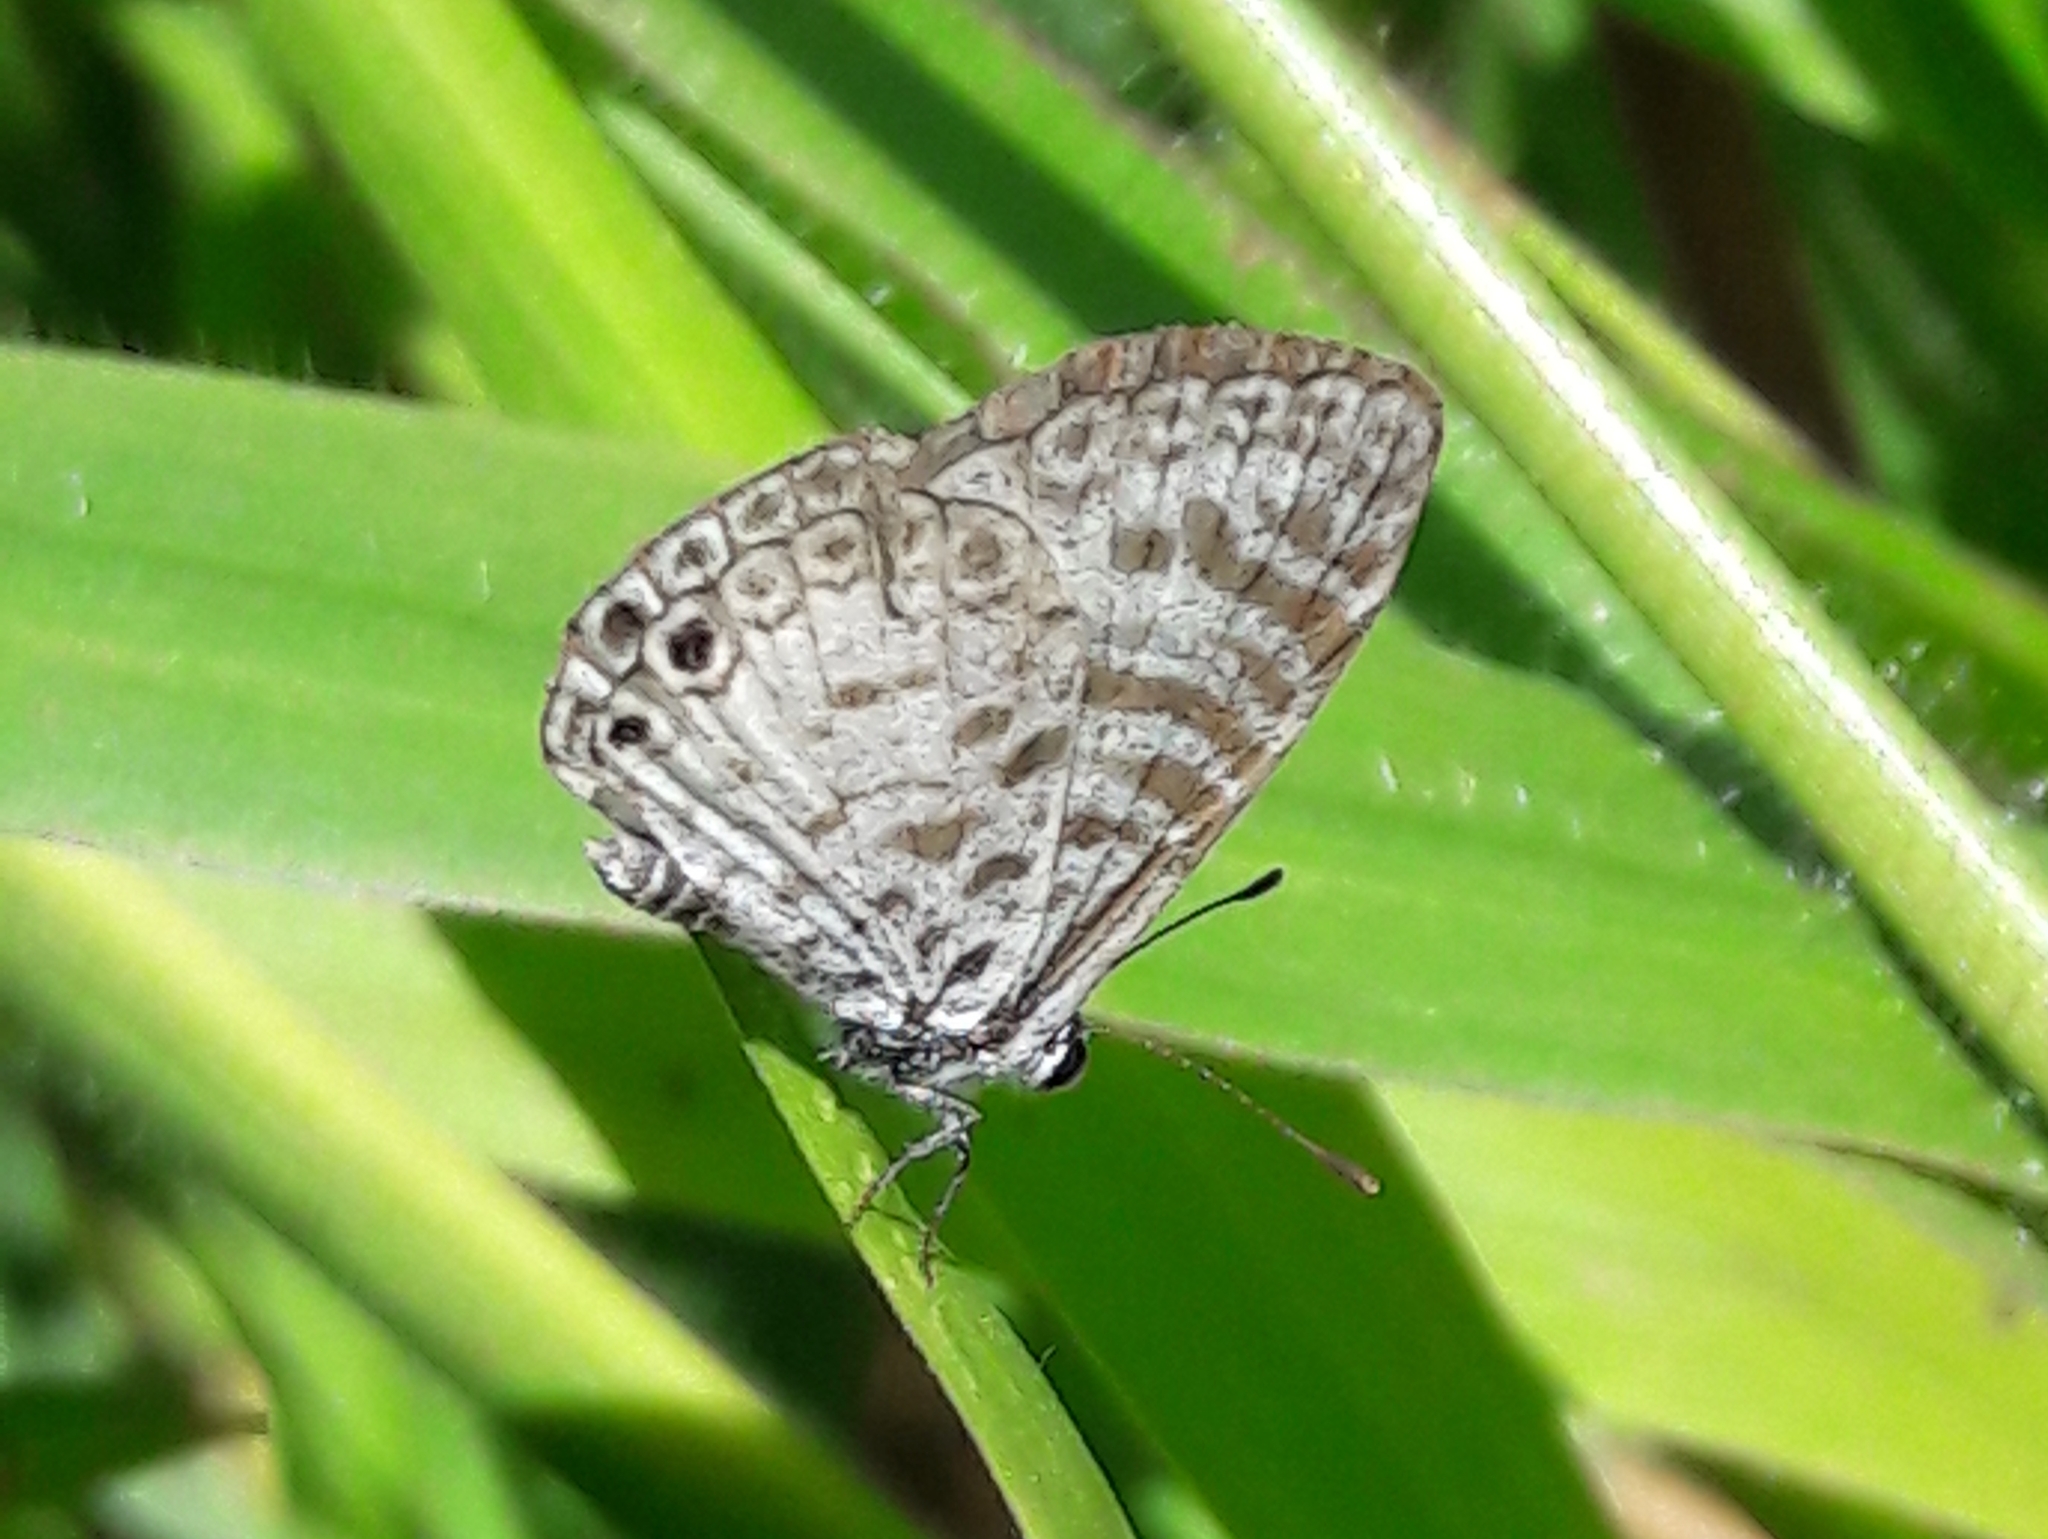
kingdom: Animalia
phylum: Arthropoda
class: Insecta
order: Lepidoptera
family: Lycaenidae
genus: Leptotes
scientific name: Leptotes cassius
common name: Cassius blue
